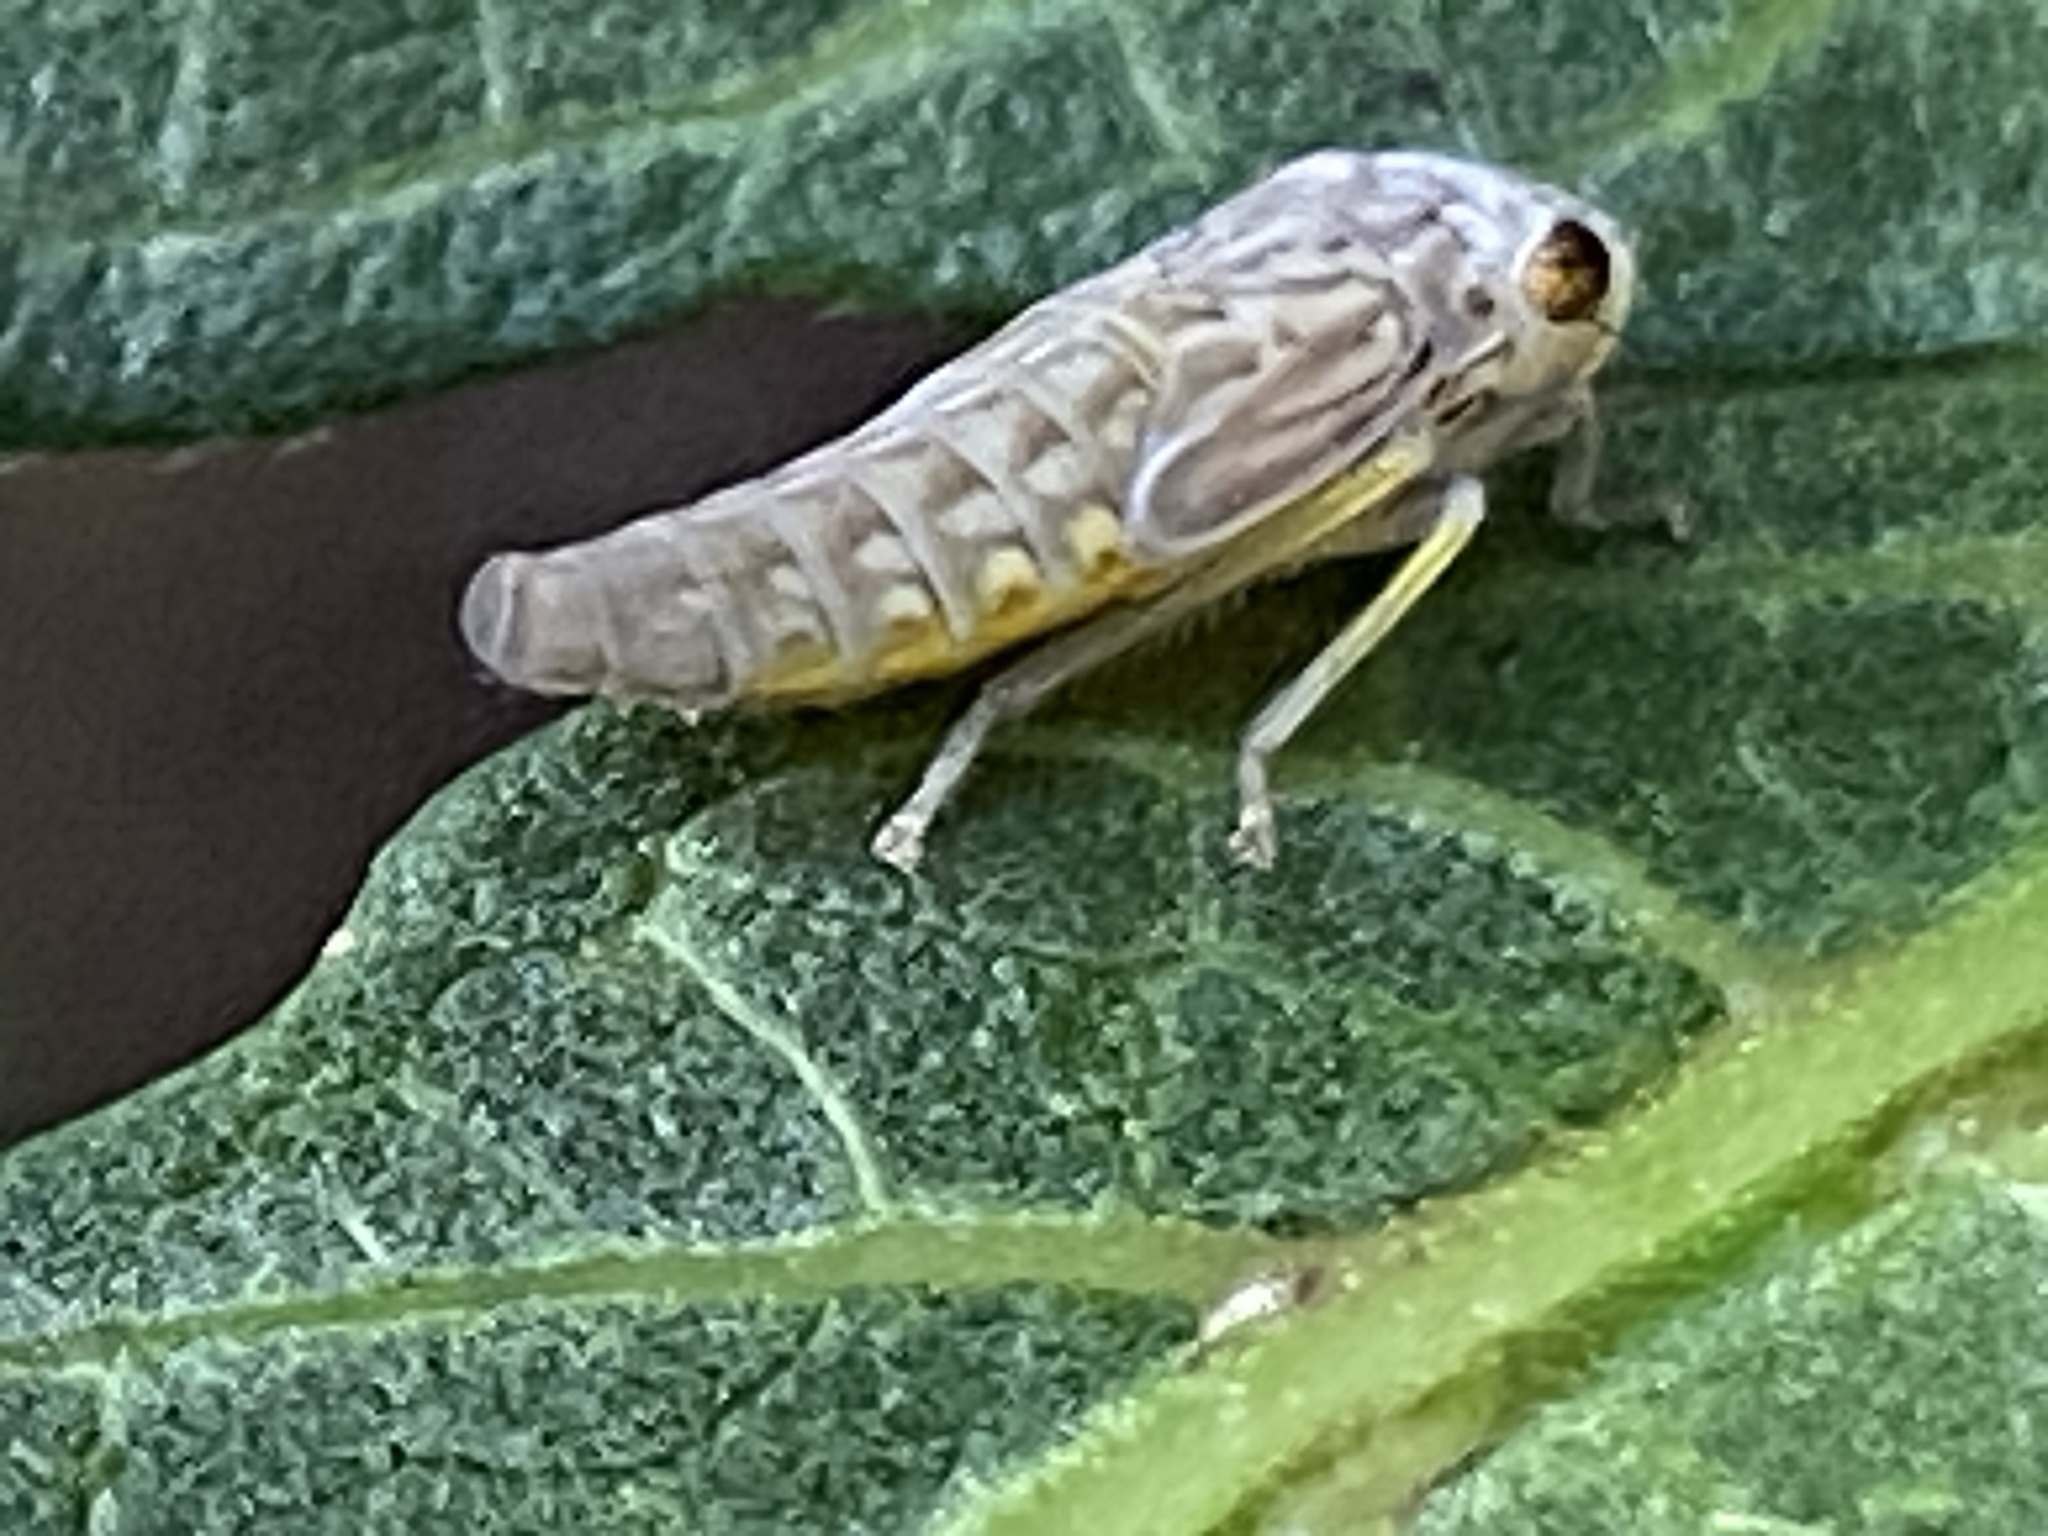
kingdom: Animalia
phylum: Arthropoda
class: Insecta
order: Hemiptera
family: Cicadellidae
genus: Oncometopia
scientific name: Oncometopia orbona
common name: Broad-headed sharpshooter
